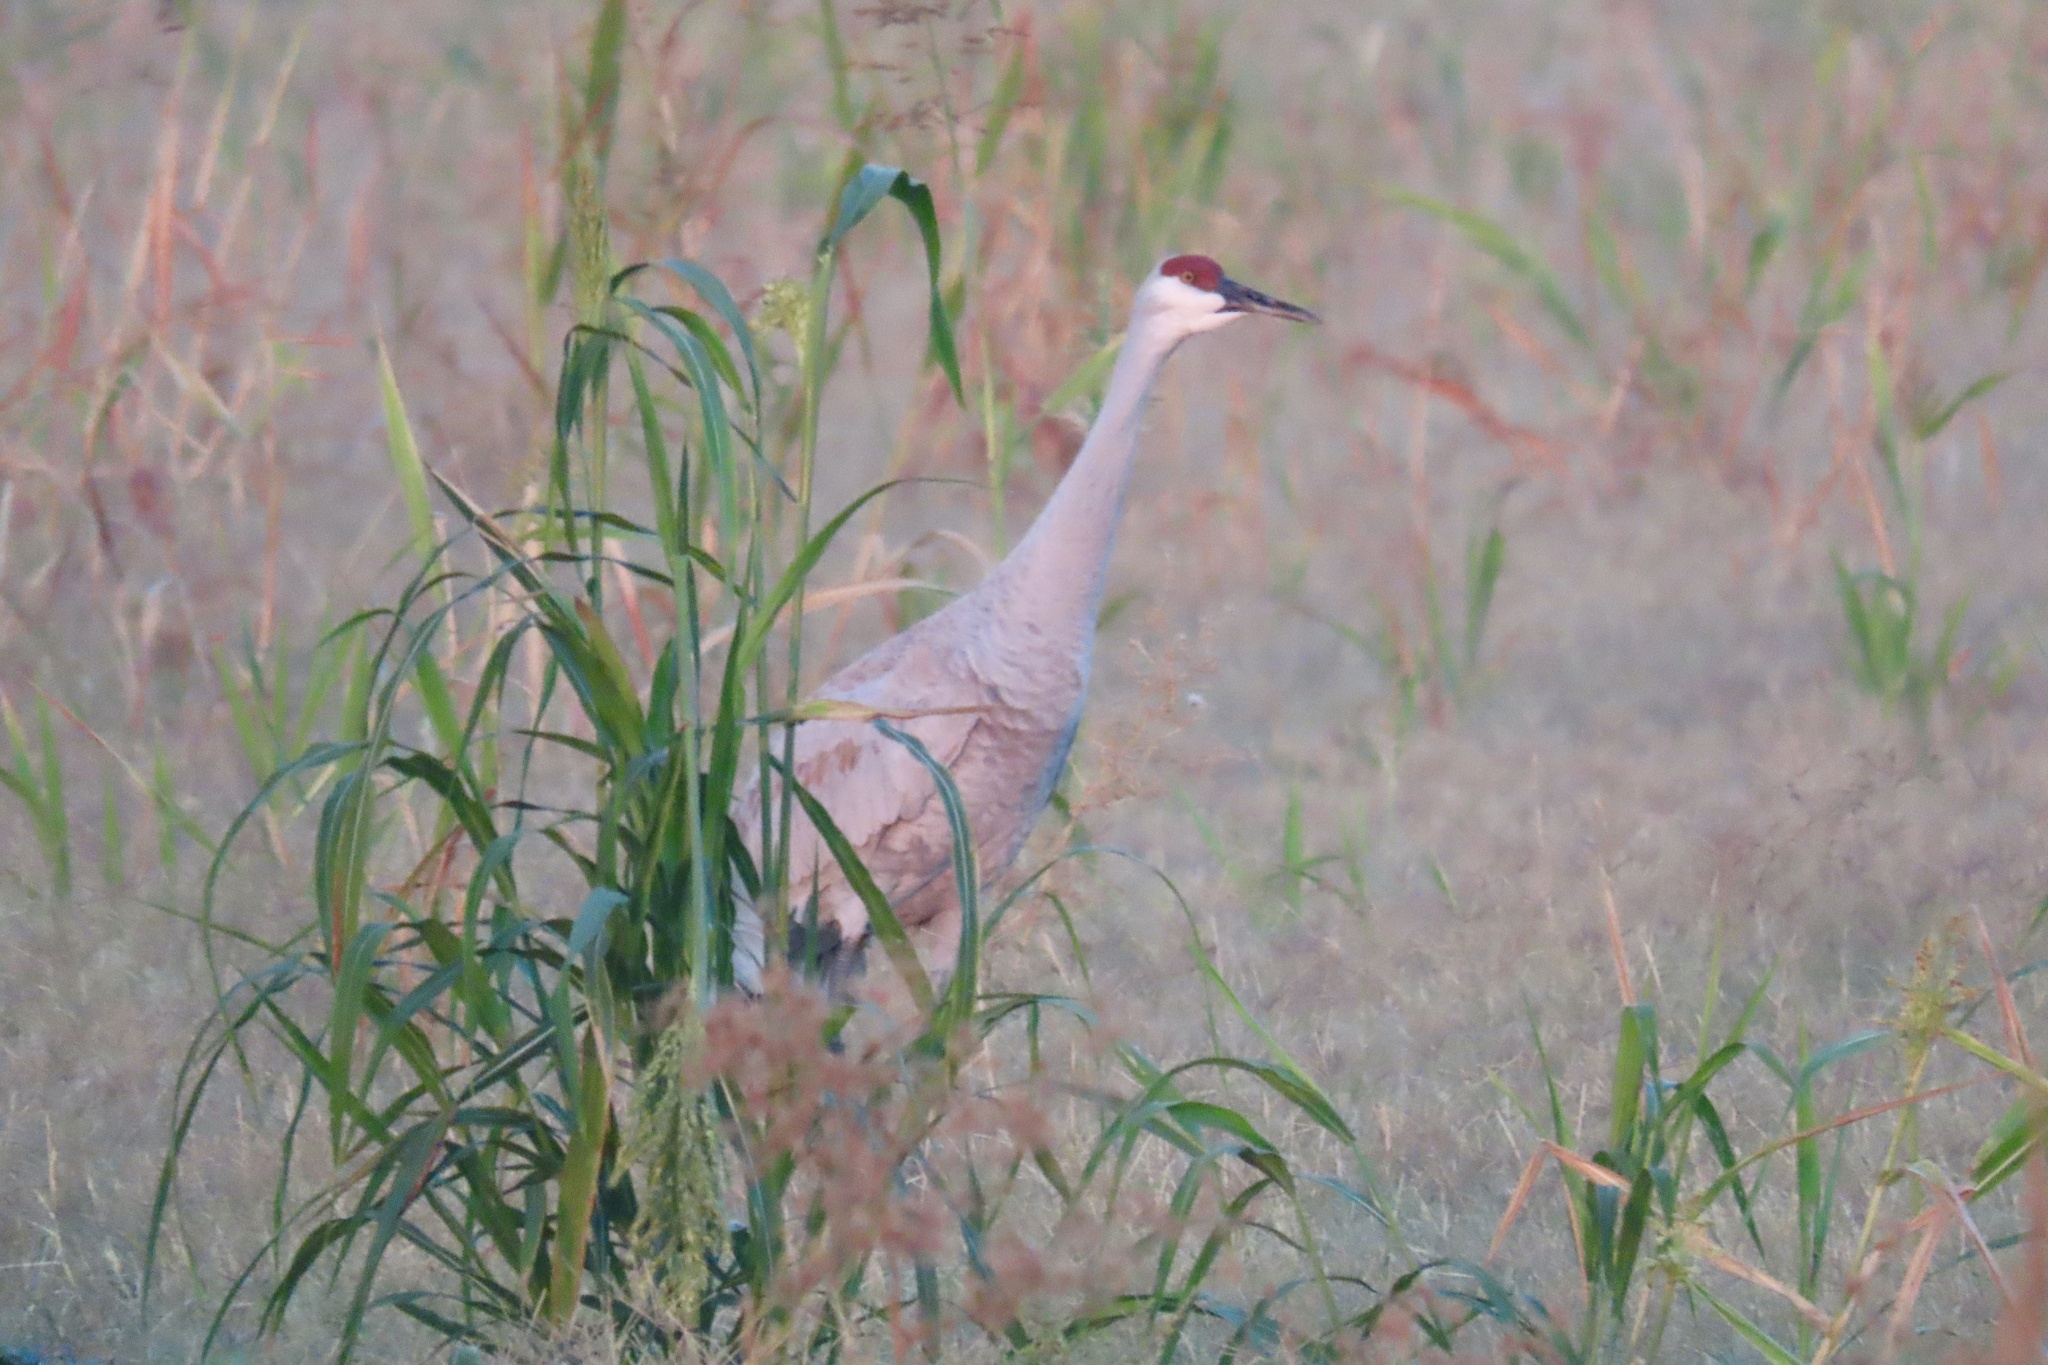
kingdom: Animalia
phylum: Chordata
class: Aves
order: Gruiformes
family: Gruidae
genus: Grus
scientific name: Grus canadensis
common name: Sandhill crane
